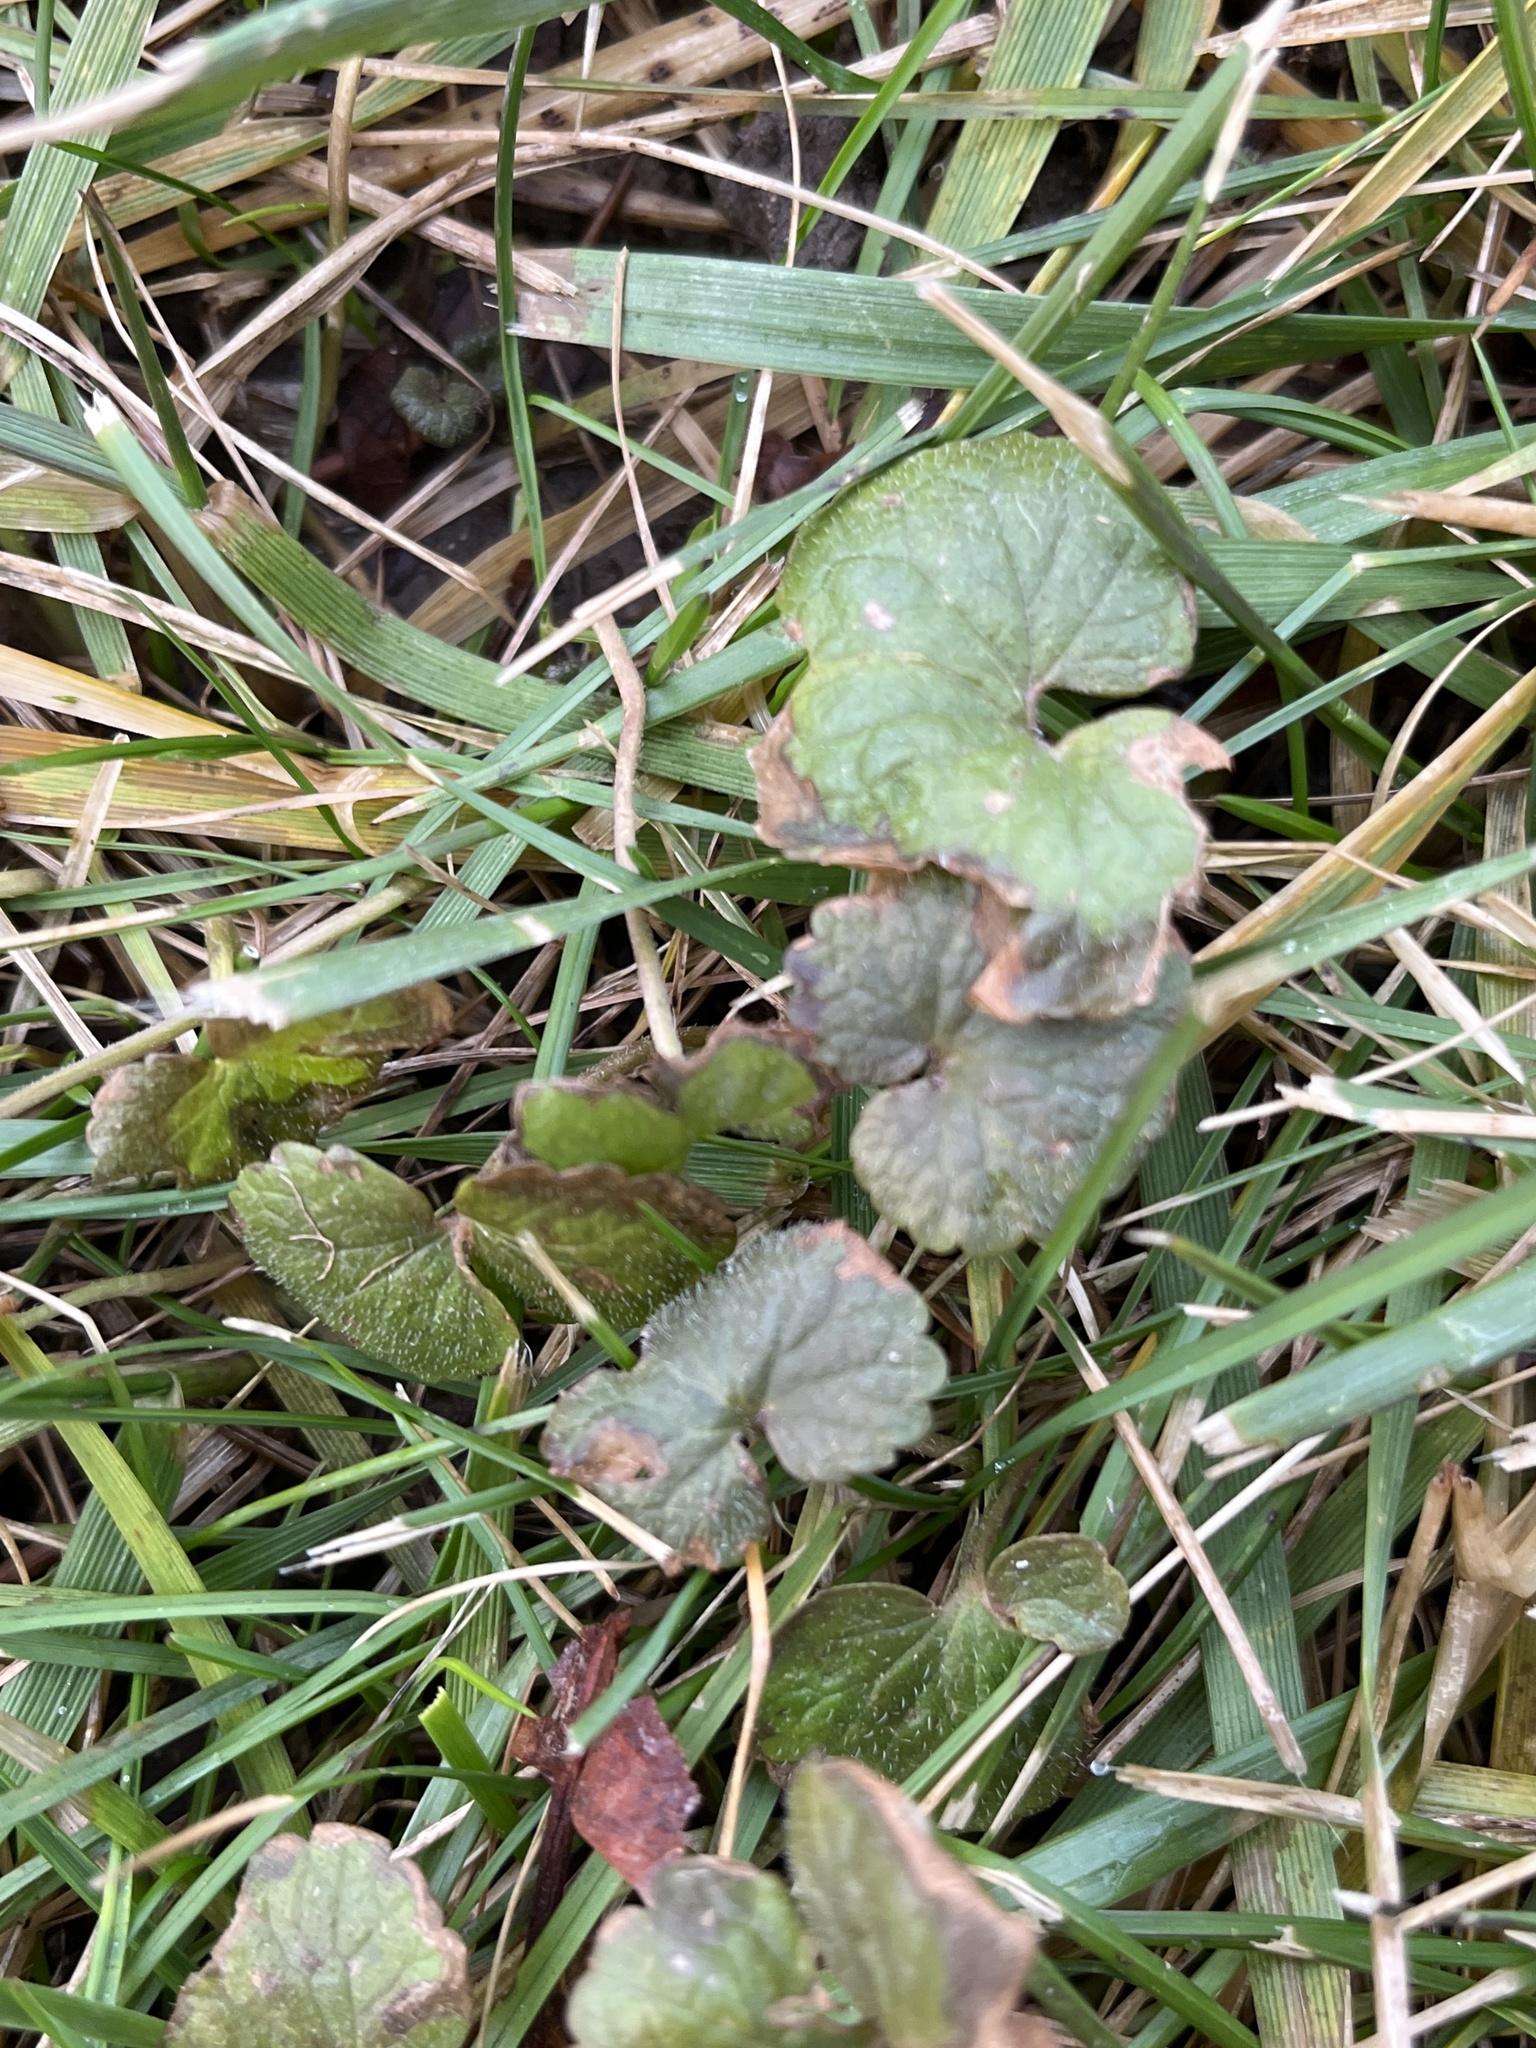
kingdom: Plantae
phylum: Tracheophyta
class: Magnoliopsida
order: Lamiales
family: Lamiaceae
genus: Glechoma
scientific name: Glechoma hederacea
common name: Ground ivy
